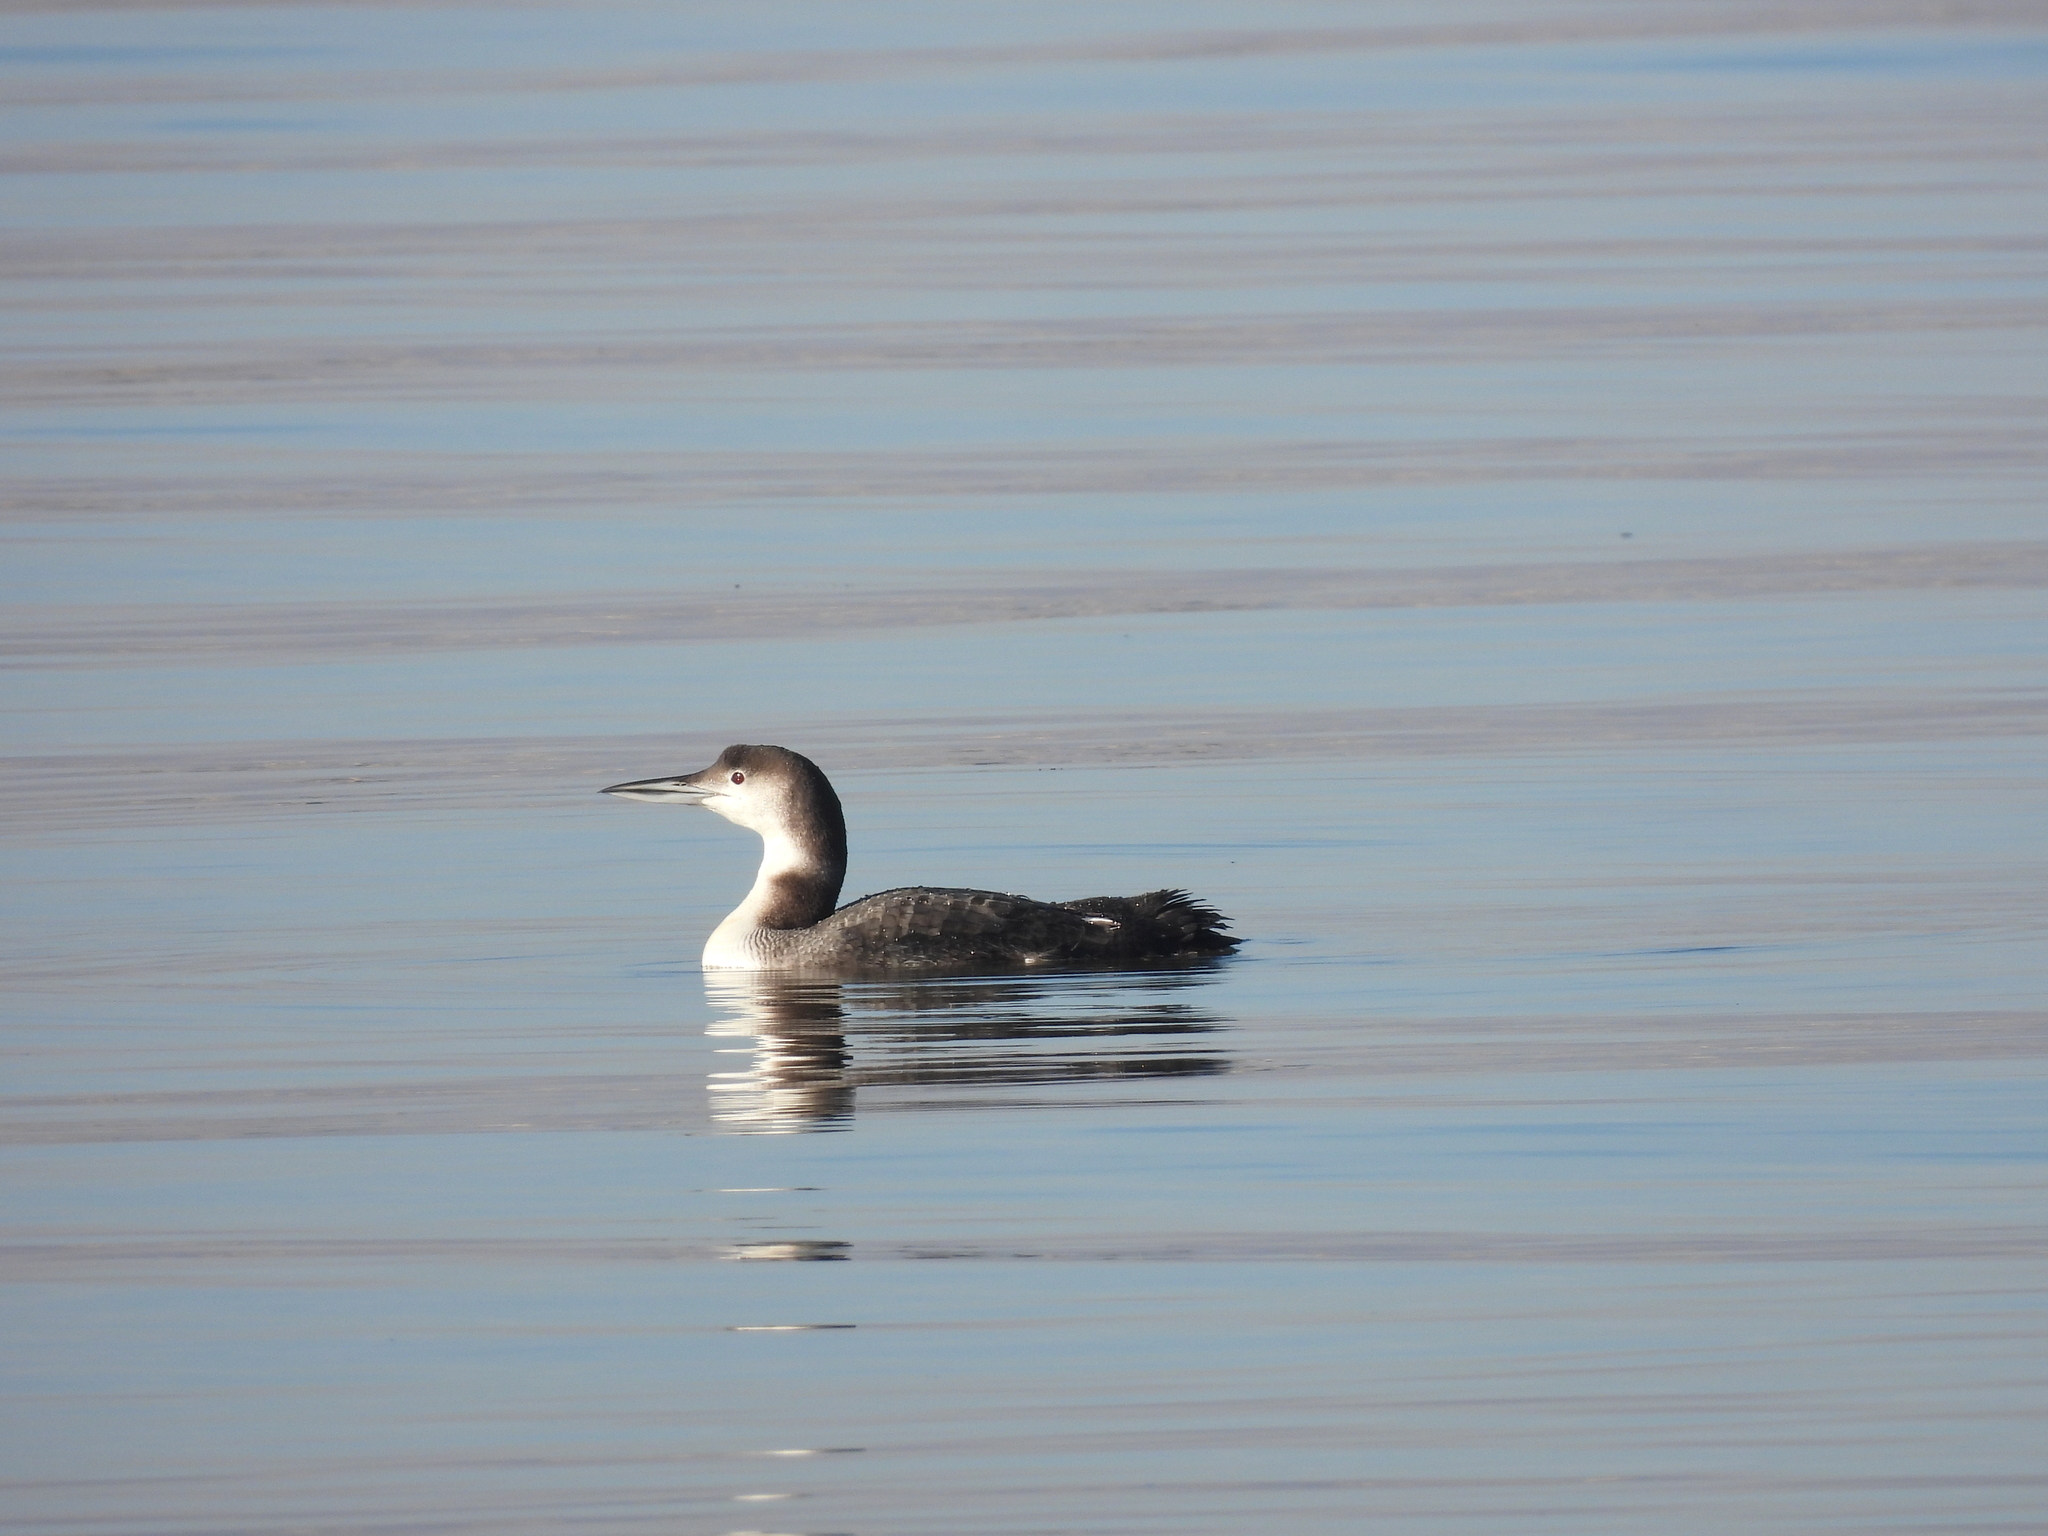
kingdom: Animalia
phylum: Chordata
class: Aves
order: Gaviiformes
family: Gaviidae
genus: Gavia
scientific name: Gavia immer
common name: Common loon
